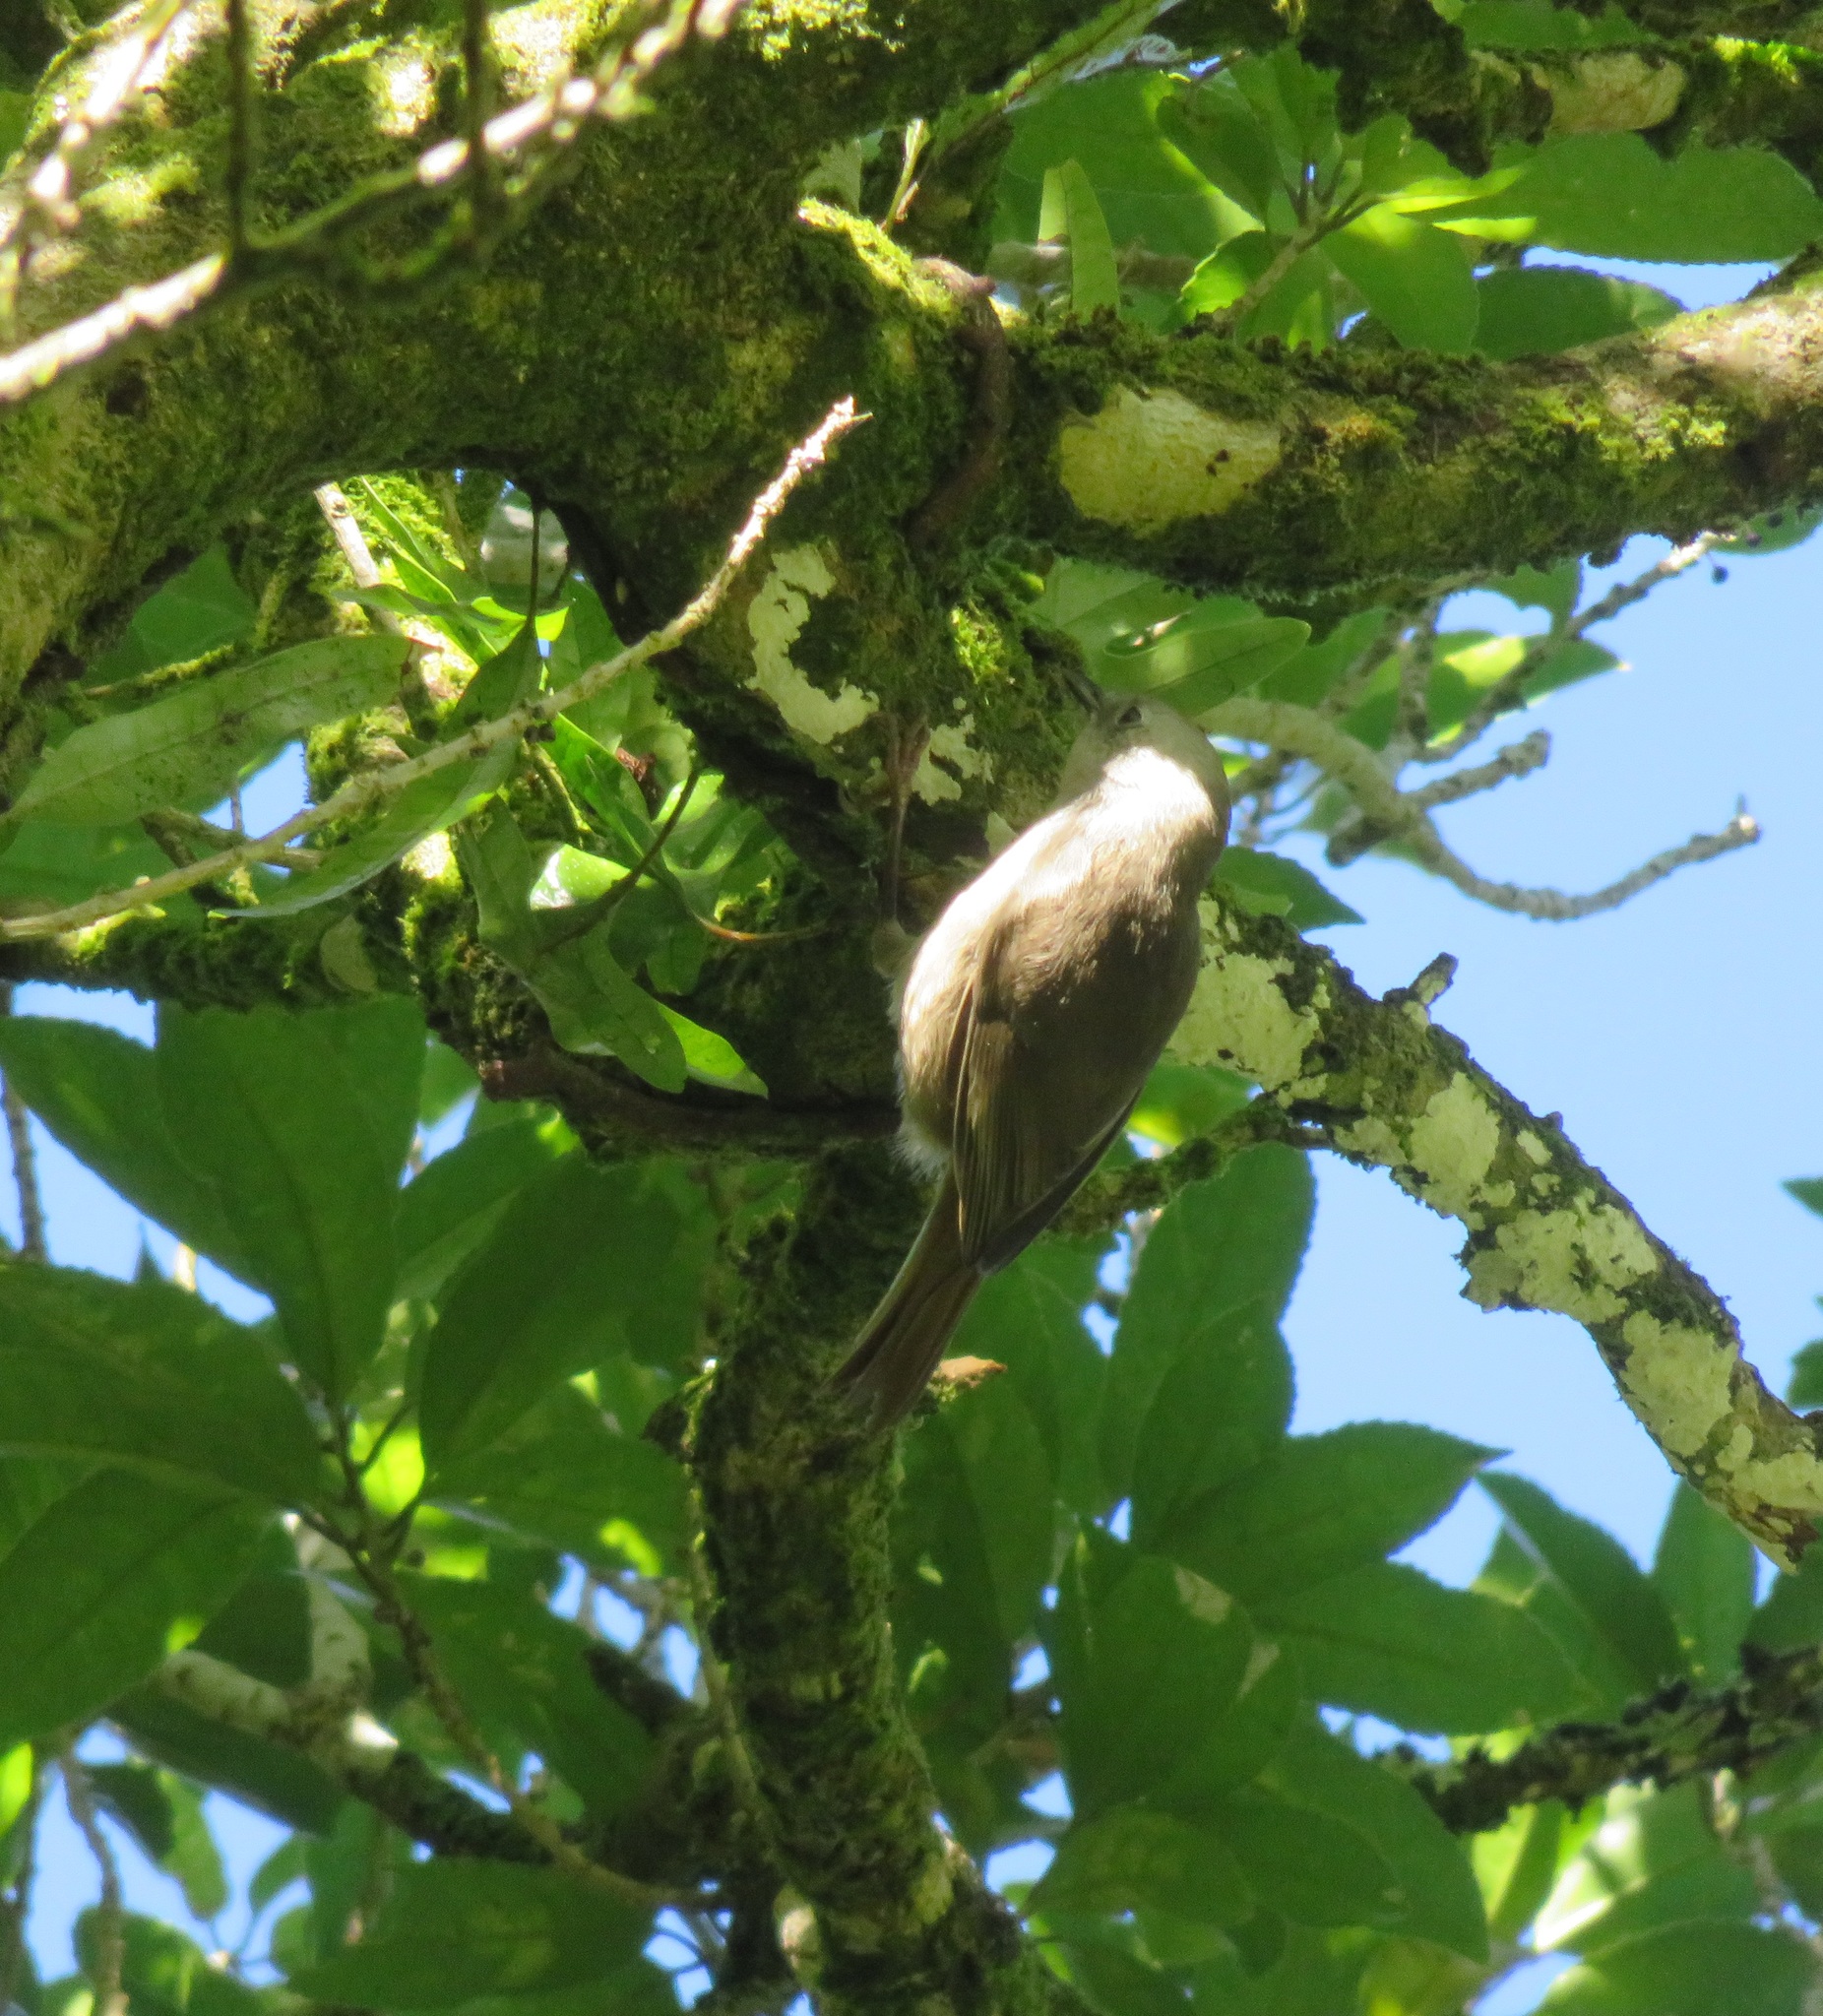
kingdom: Animalia
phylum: Chordata
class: Aves
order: Passeriformes
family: Acanthizidae
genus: Mohoua
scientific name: Mohoua albicilla
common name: Whitehead
